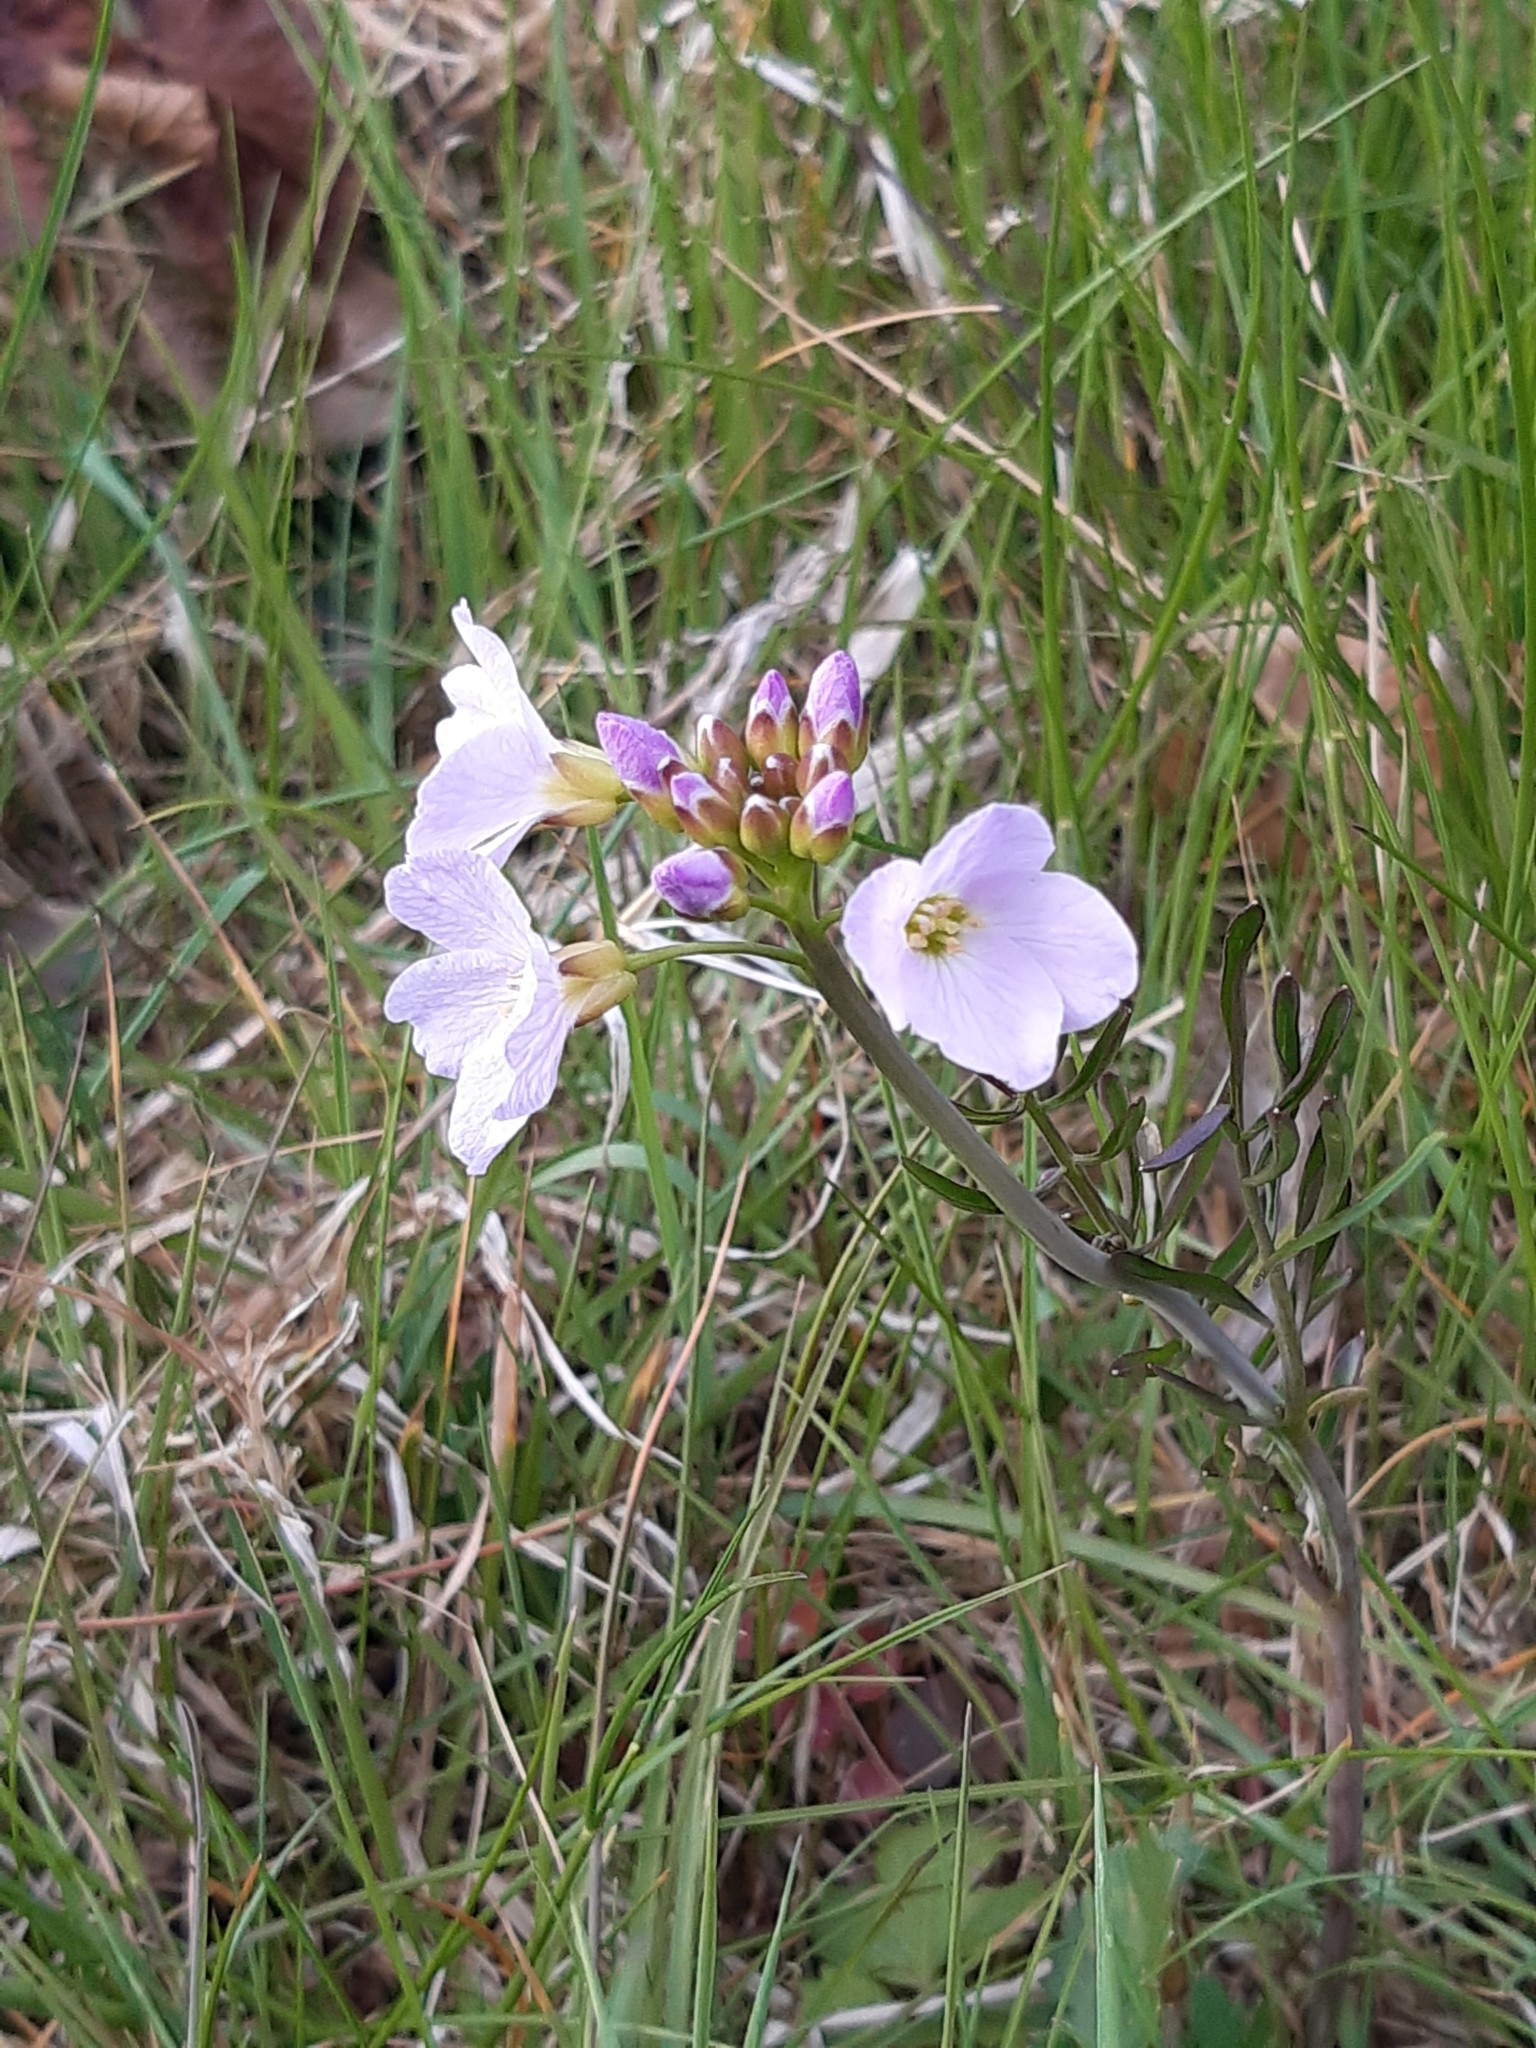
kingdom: Plantae
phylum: Tracheophyta
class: Magnoliopsida
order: Brassicales
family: Brassicaceae
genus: Cardamine
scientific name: Cardamine pratensis
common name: Cuckoo flower
